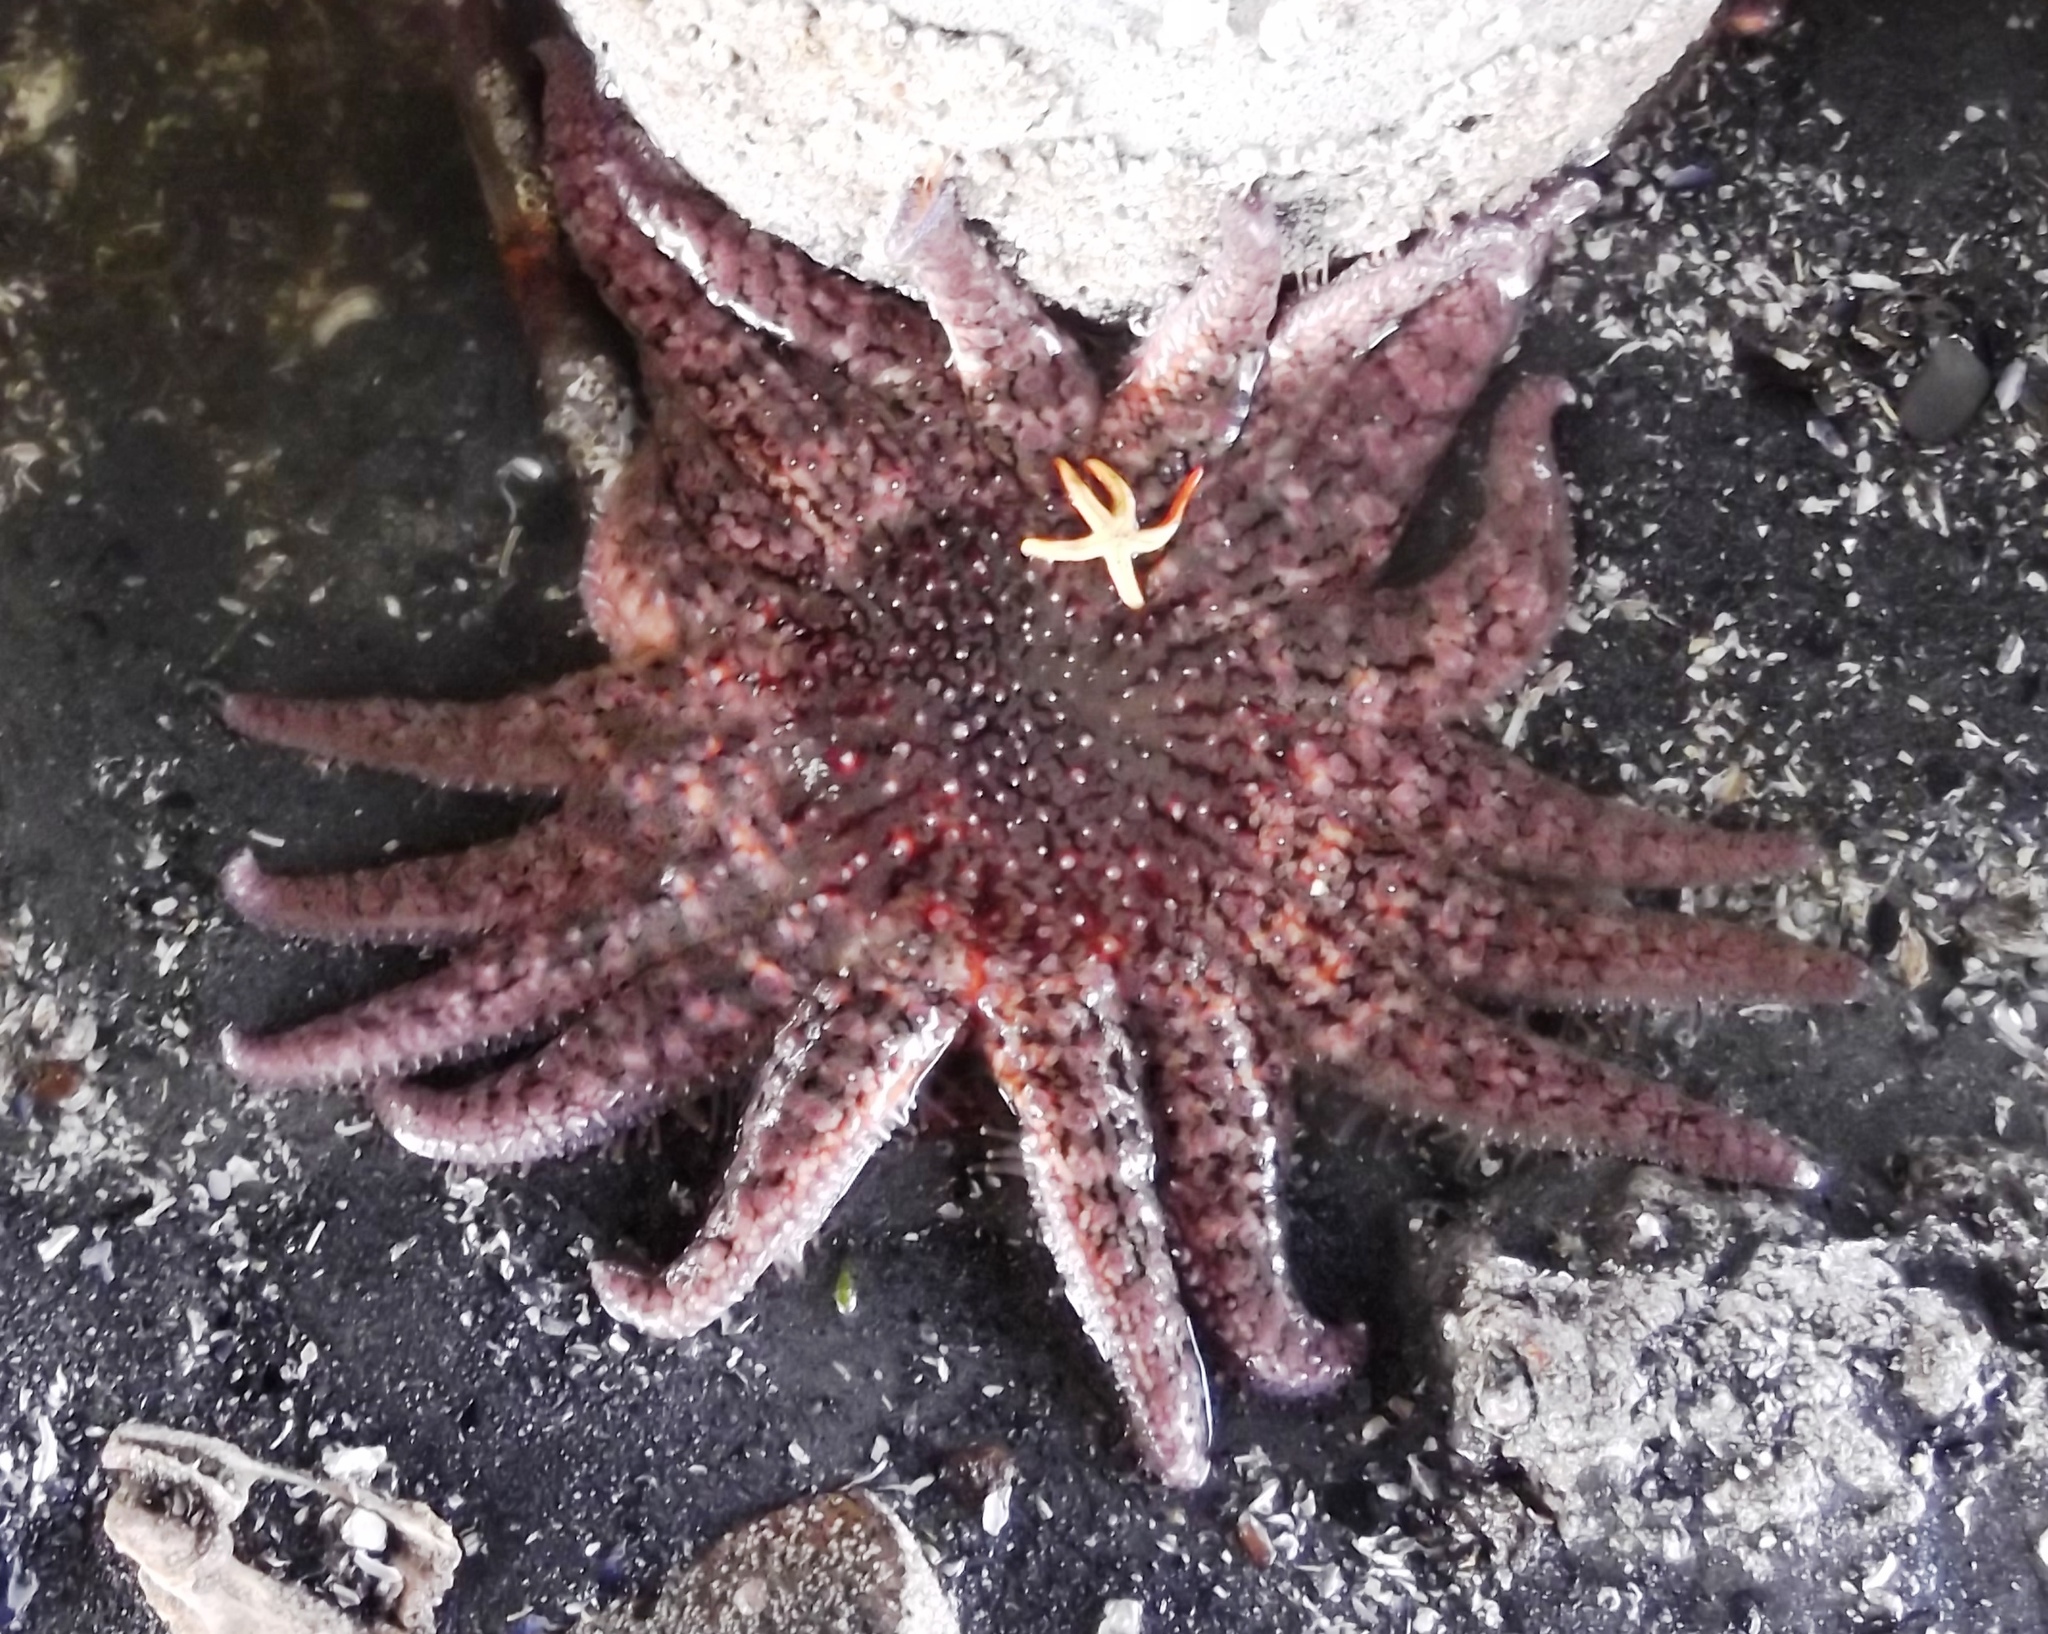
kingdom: Animalia
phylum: Echinodermata
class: Asteroidea
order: Forcipulatida
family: Asteriidae
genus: Pycnopodia
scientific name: Pycnopodia helianthoides
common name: Rag mop
